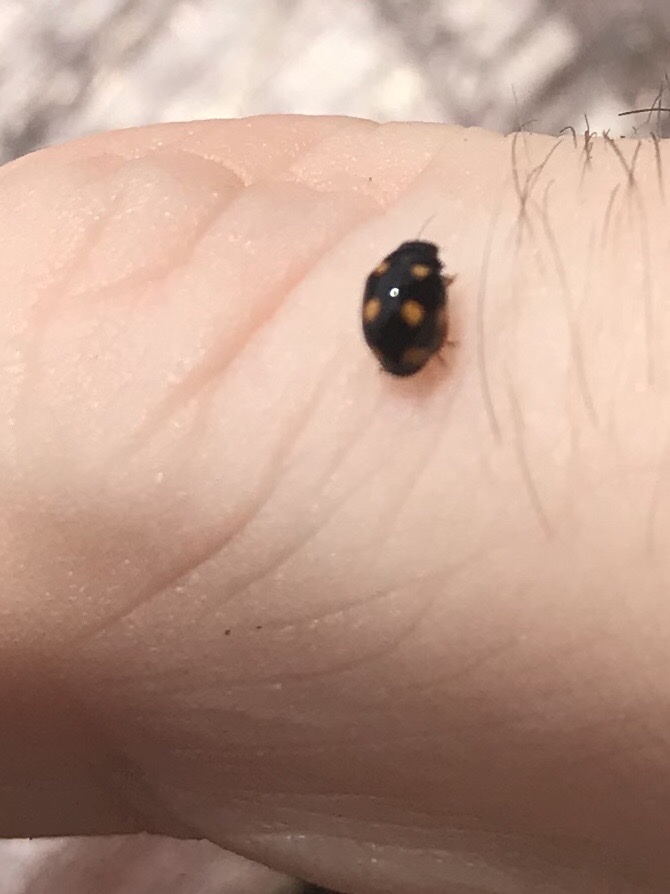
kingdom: Animalia
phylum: Arthropoda
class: Insecta
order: Coleoptera
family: Coccinellidae
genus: Brachiacantha
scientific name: Brachiacantha ursina
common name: Ursine spurleg lady beetle
